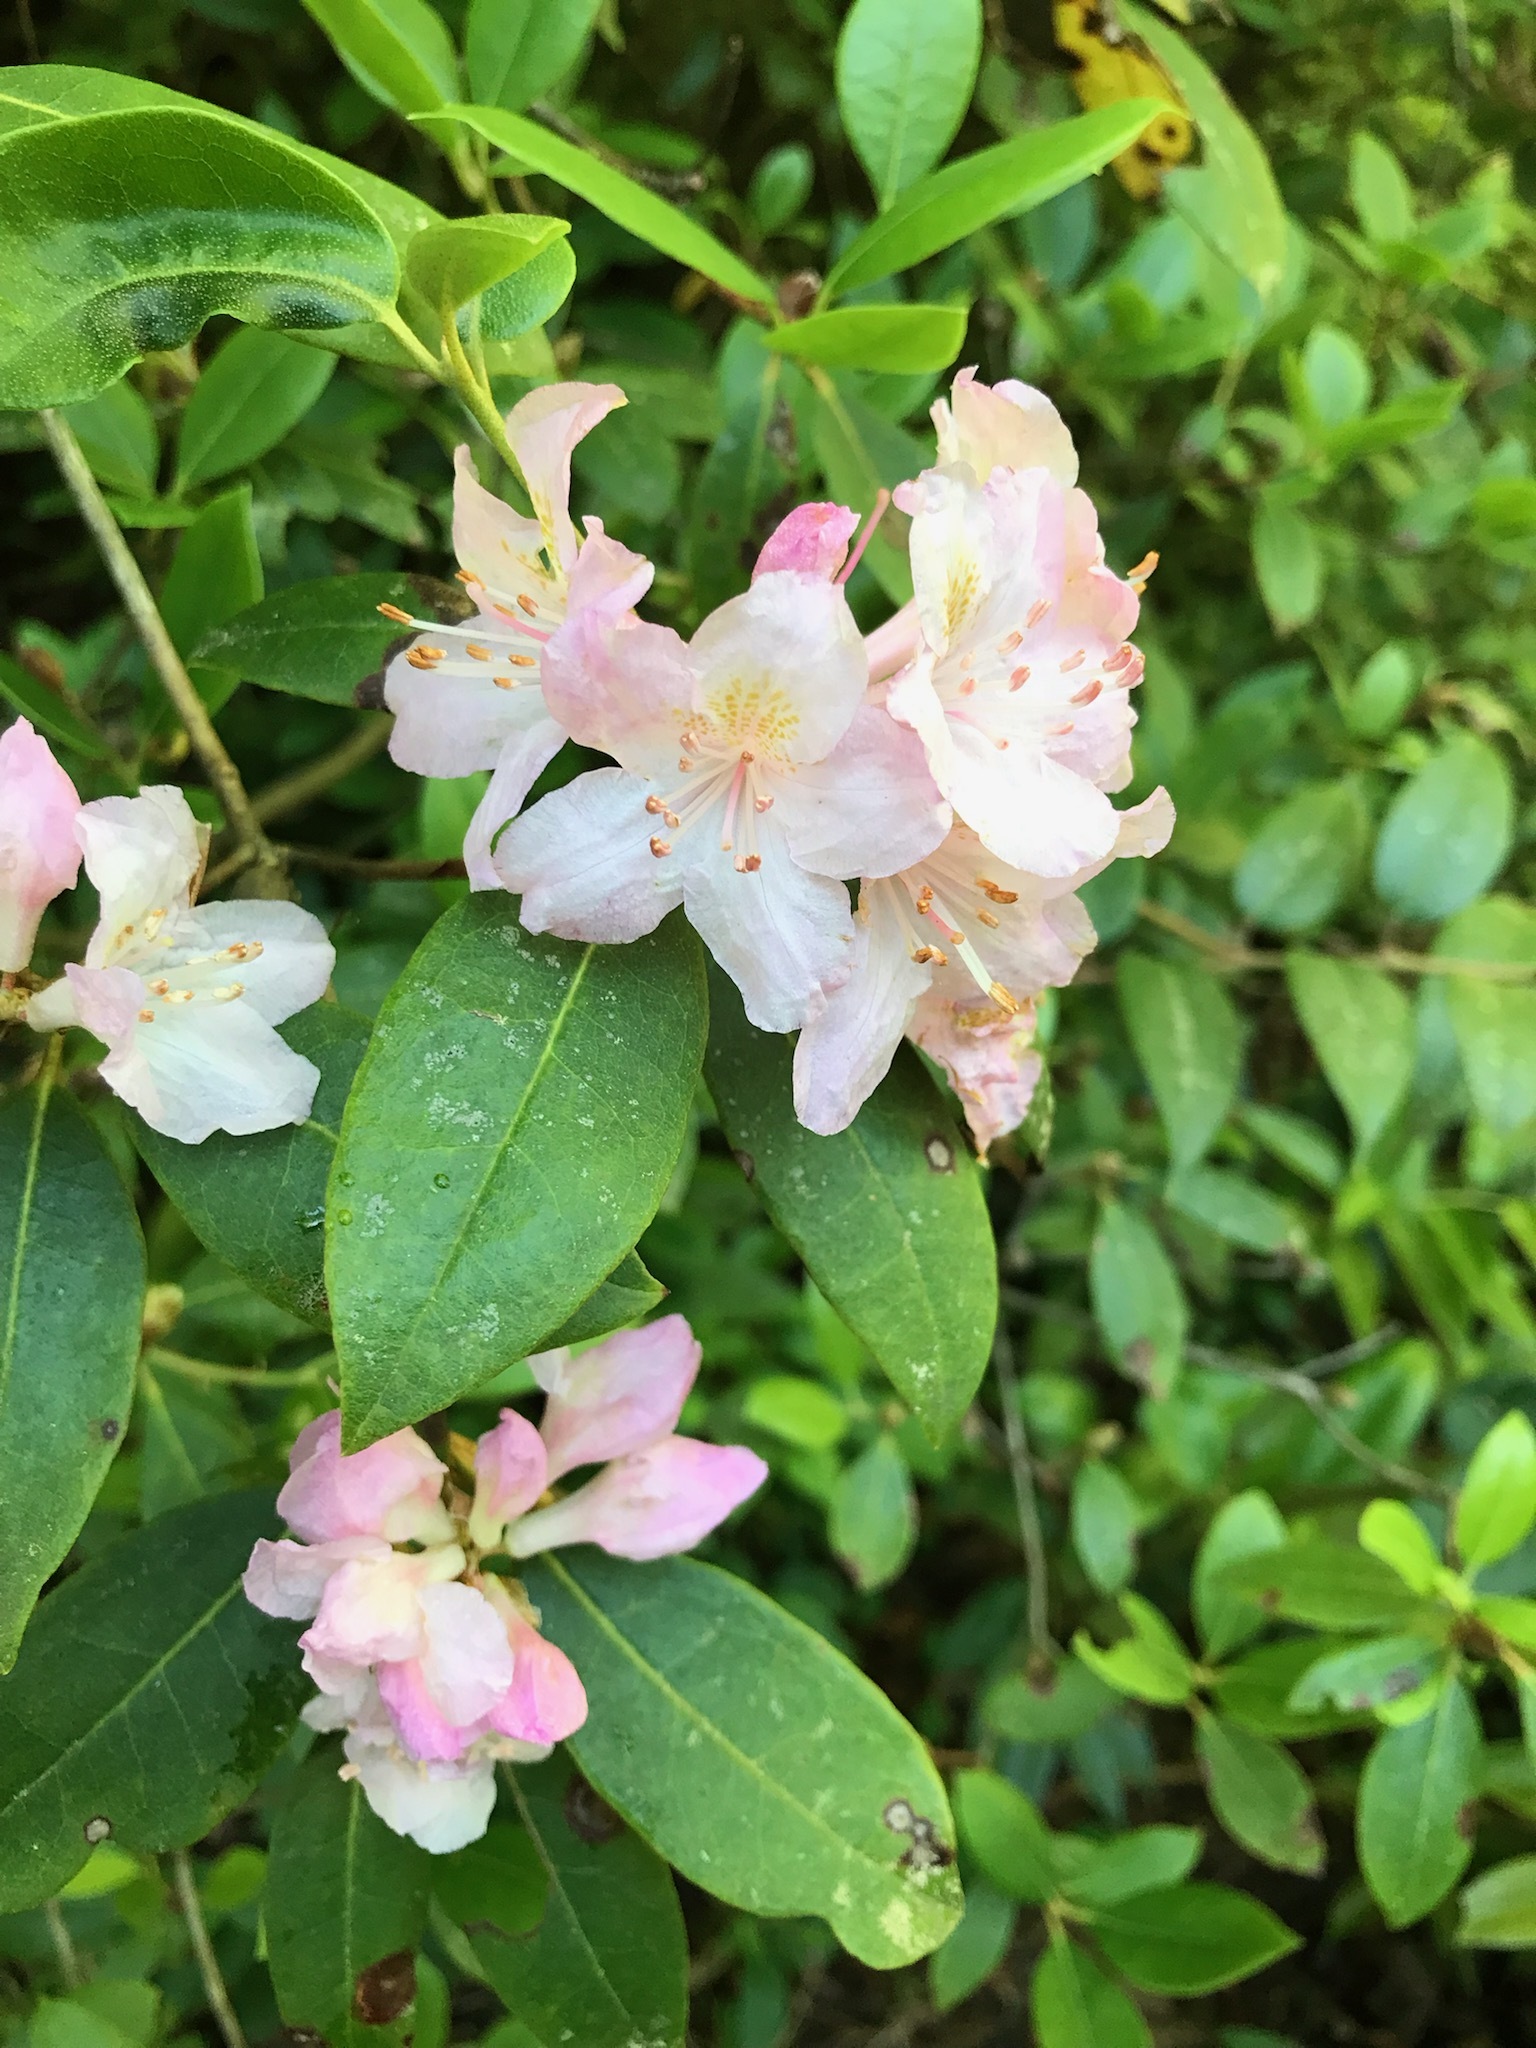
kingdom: Plantae
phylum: Tracheophyta
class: Magnoliopsida
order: Ericales
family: Ericaceae
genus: Rhododendron
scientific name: Rhododendron minus
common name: Piedmont rhododendron
